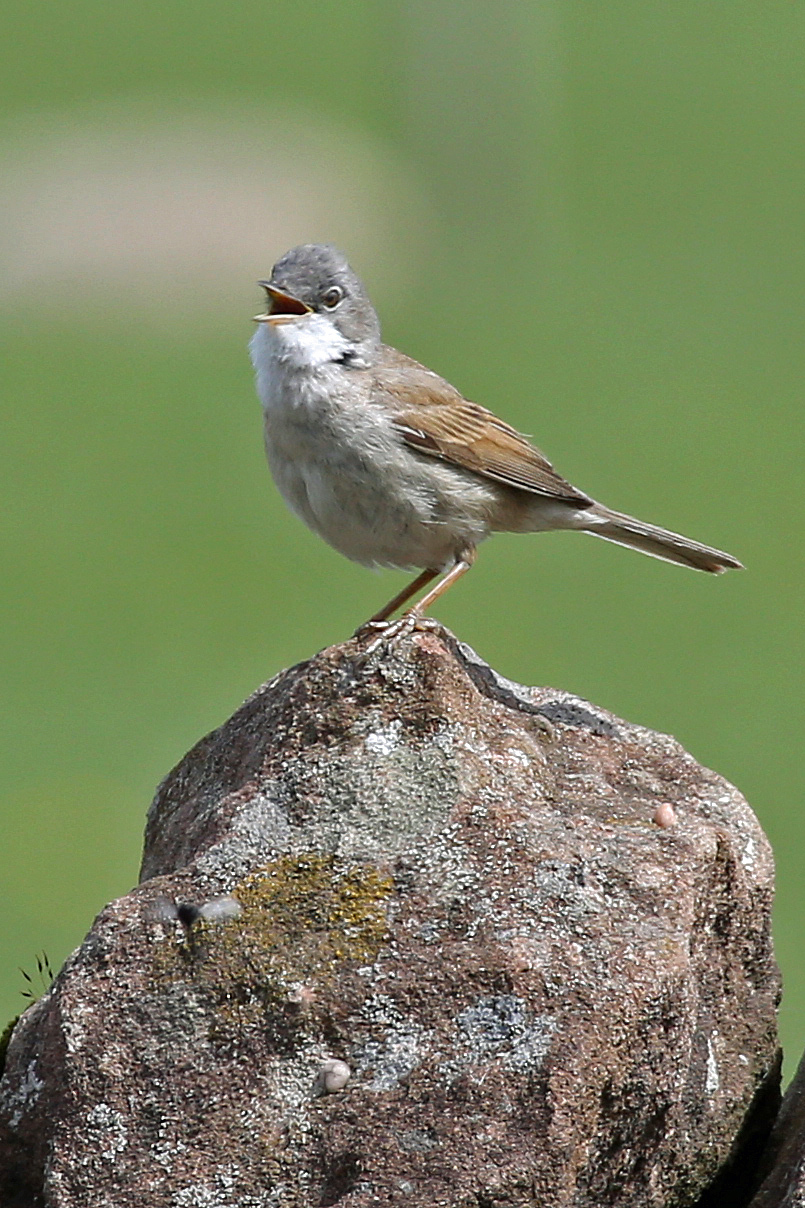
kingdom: Animalia
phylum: Chordata
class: Aves
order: Passeriformes
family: Sylviidae
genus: Sylvia
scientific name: Sylvia communis
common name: Common whitethroat
